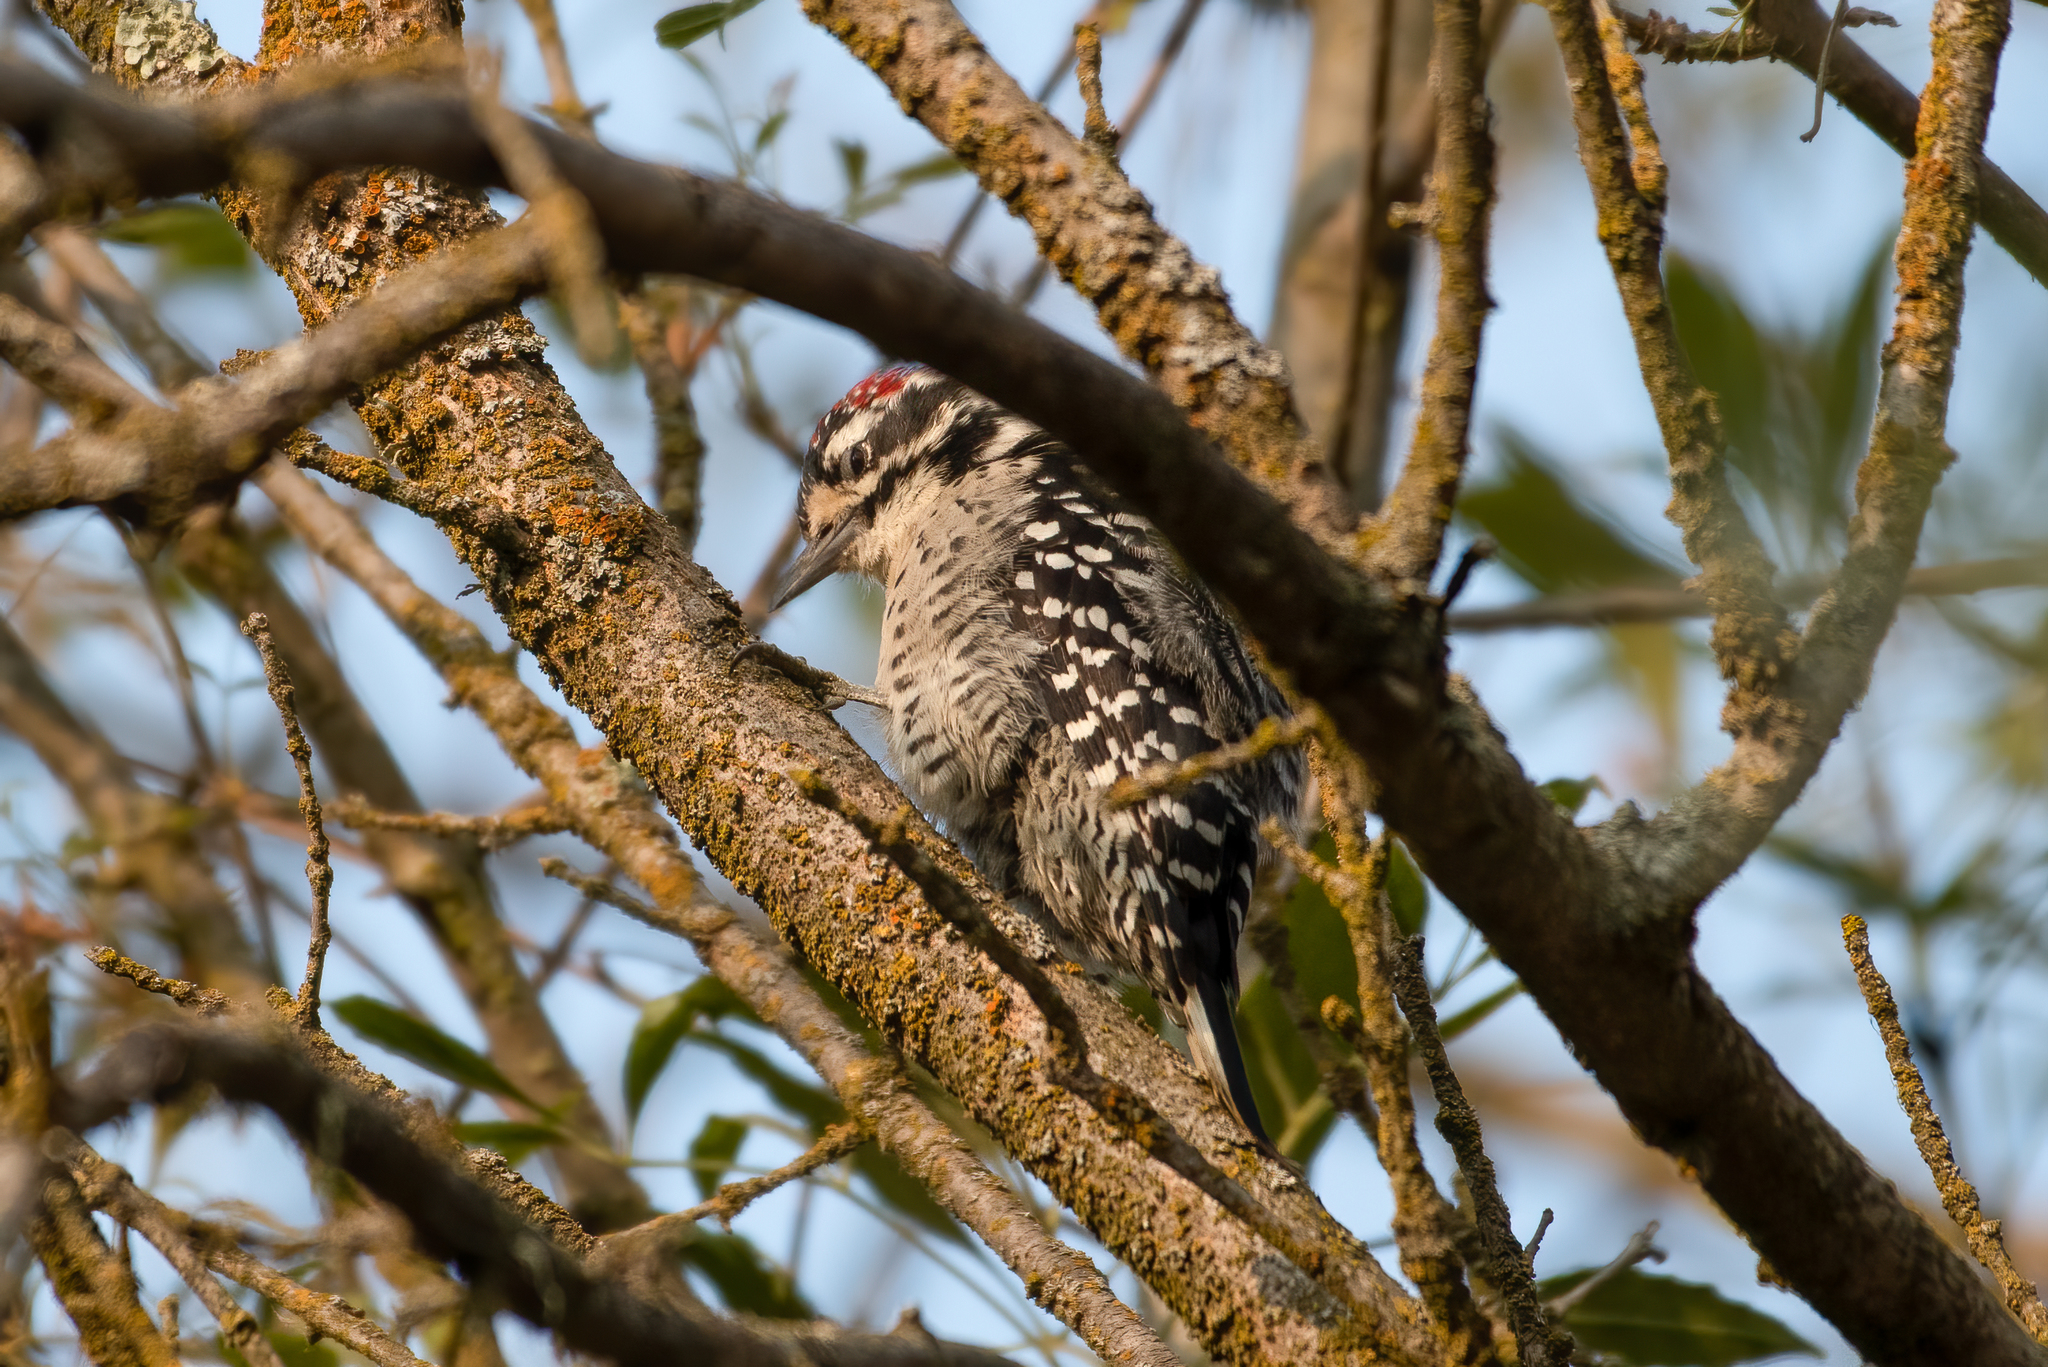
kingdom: Animalia
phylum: Chordata
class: Aves
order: Piciformes
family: Picidae
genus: Dryobates
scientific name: Dryobates nuttallii
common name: Nuttall's woodpecker
